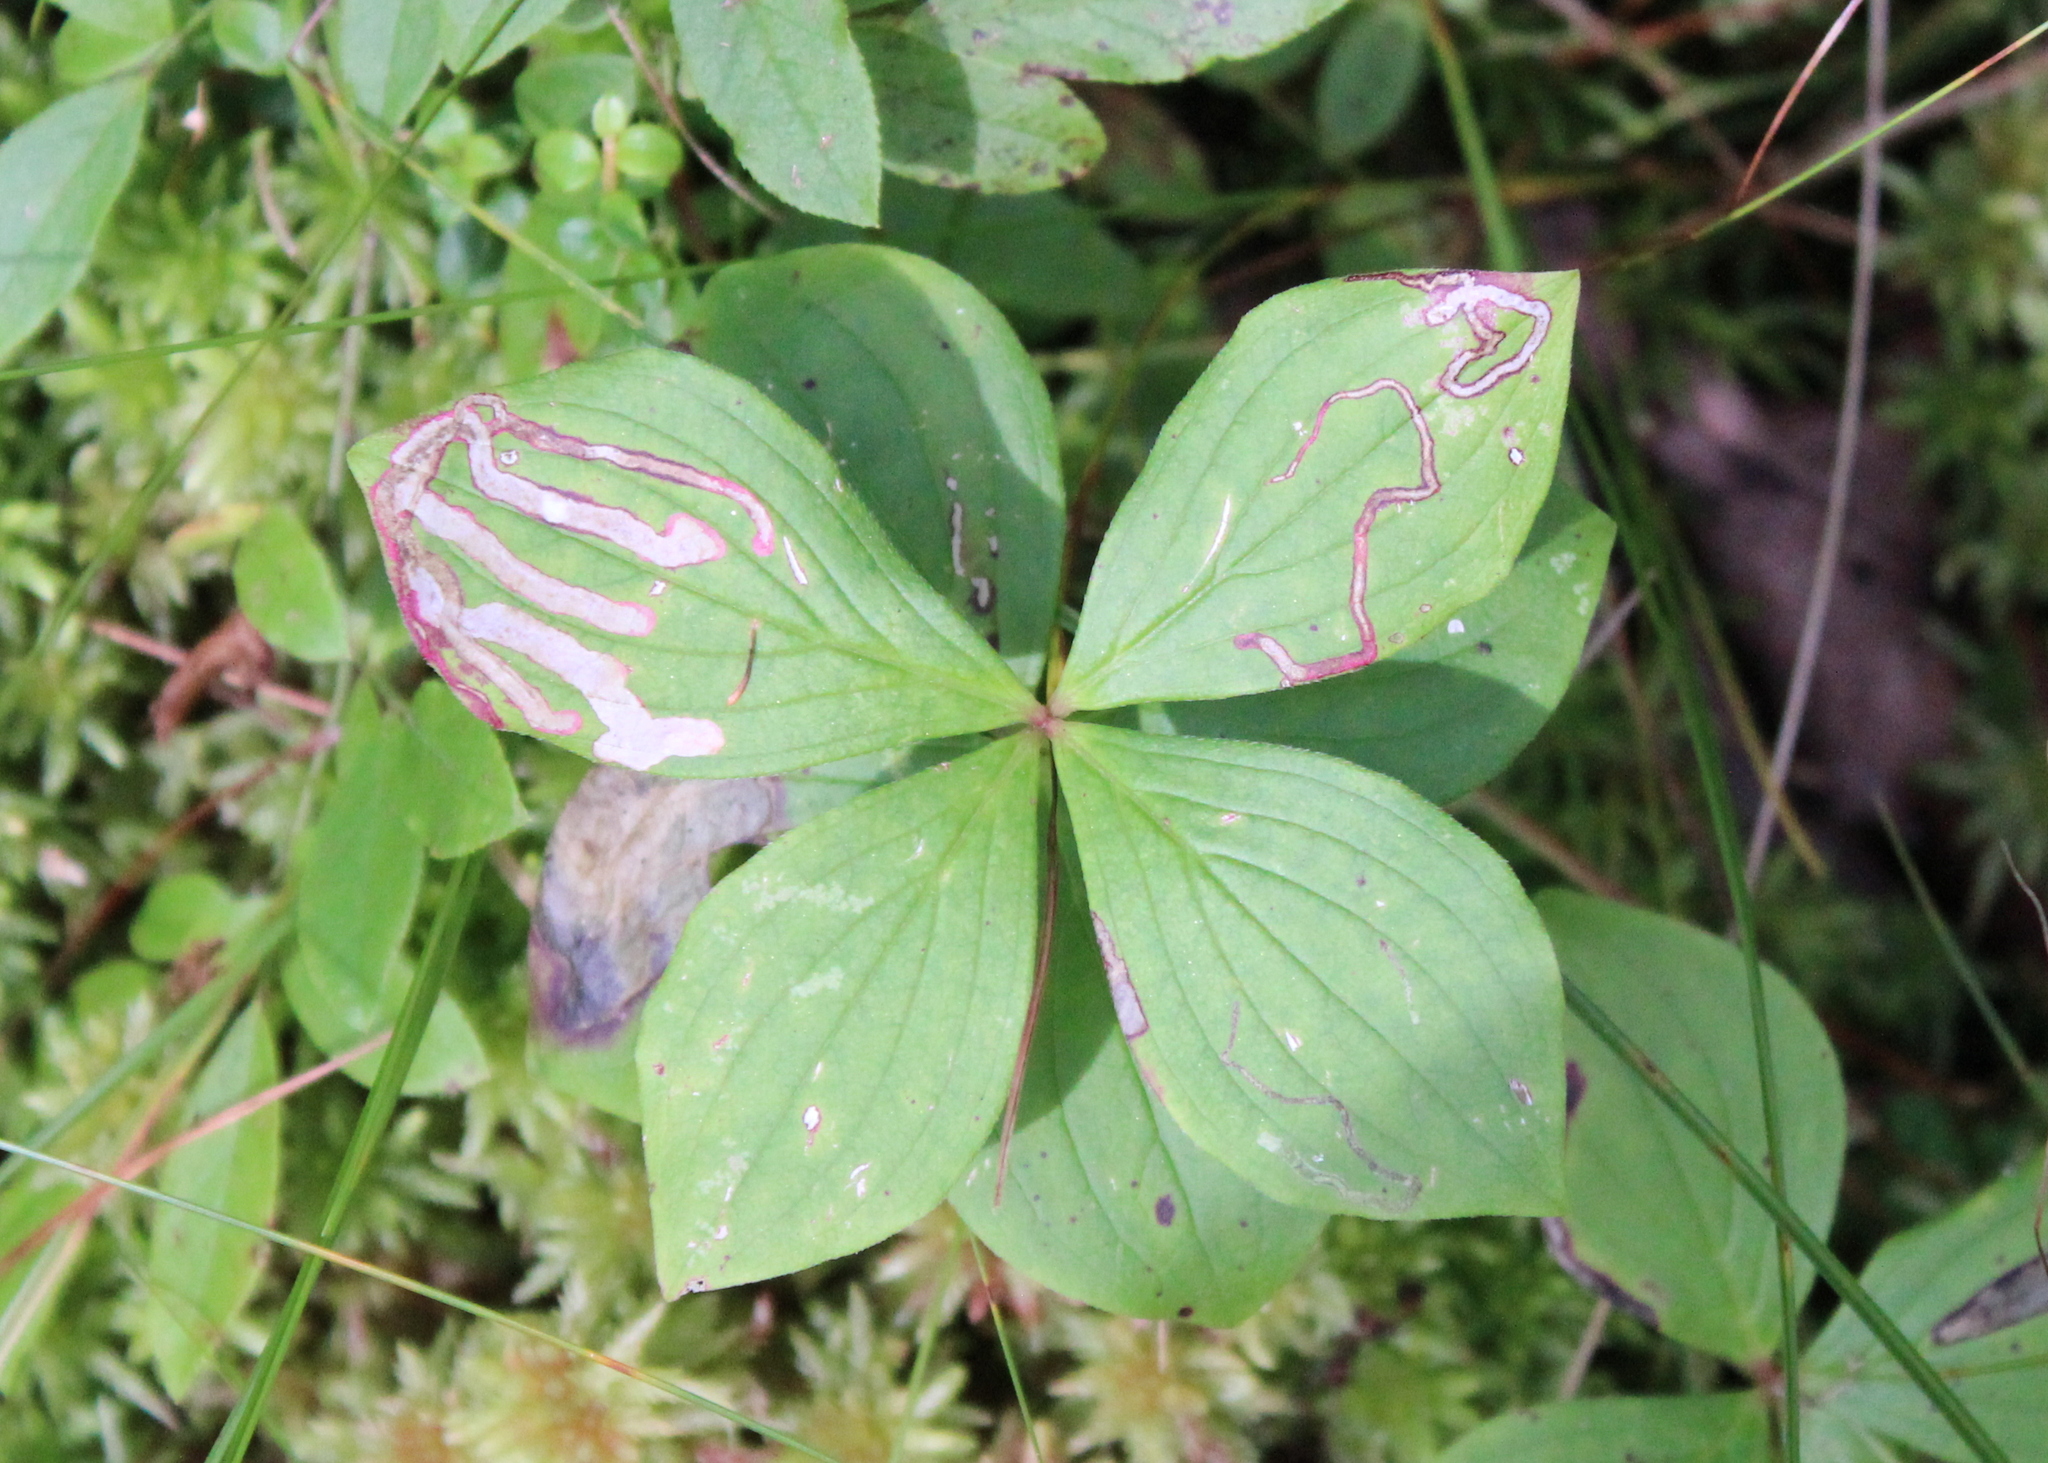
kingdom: Plantae
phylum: Tracheophyta
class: Magnoliopsida
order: Cornales
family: Cornaceae
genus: Cornus
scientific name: Cornus canadensis
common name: Creeping dogwood
